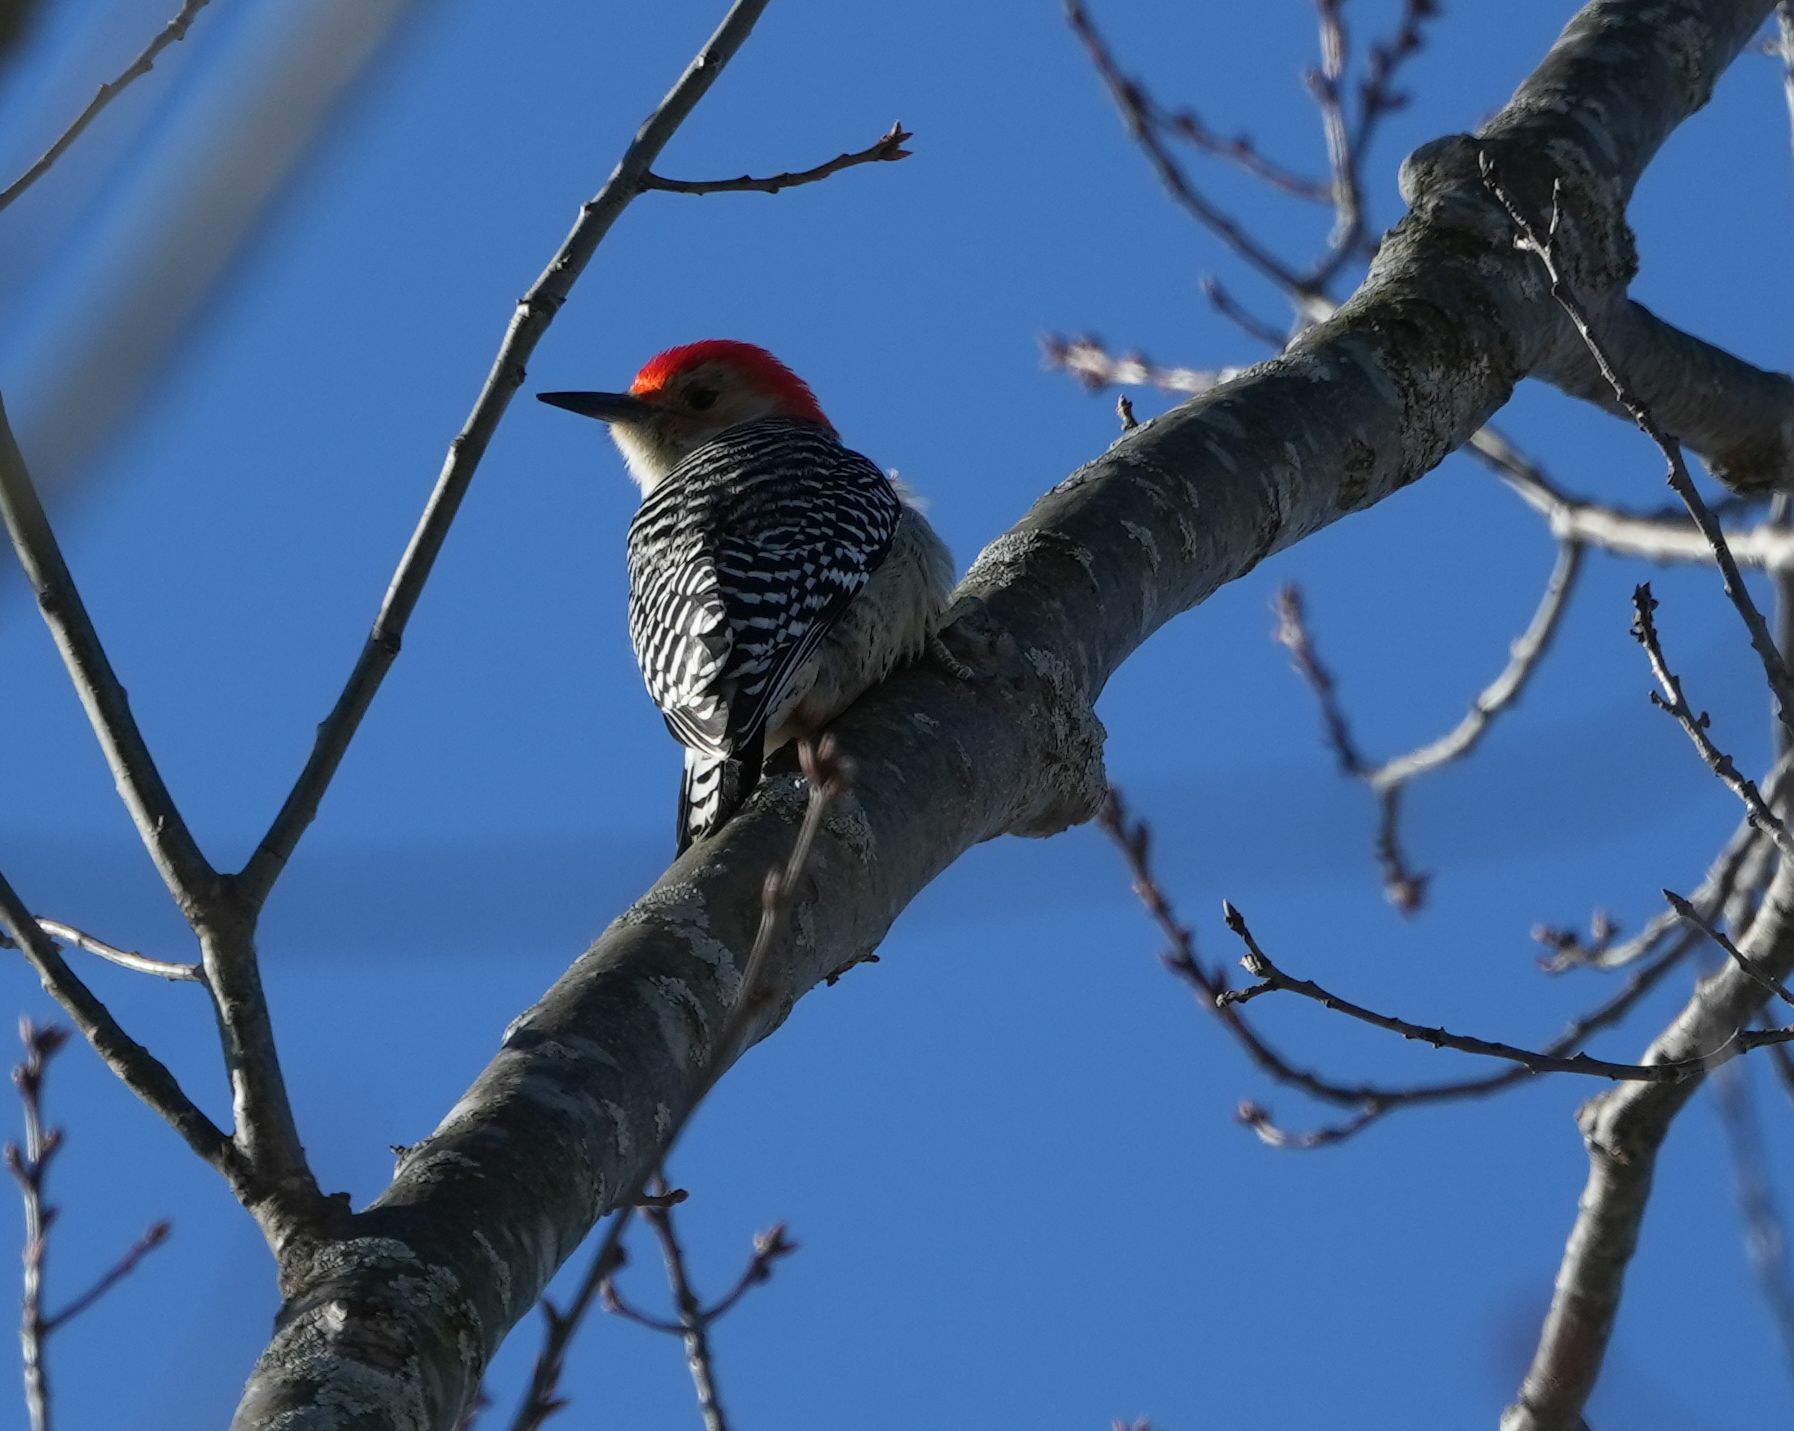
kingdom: Animalia
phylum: Chordata
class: Aves
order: Piciformes
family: Picidae
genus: Melanerpes
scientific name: Melanerpes carolinus
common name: Red-bellied woodpecker
